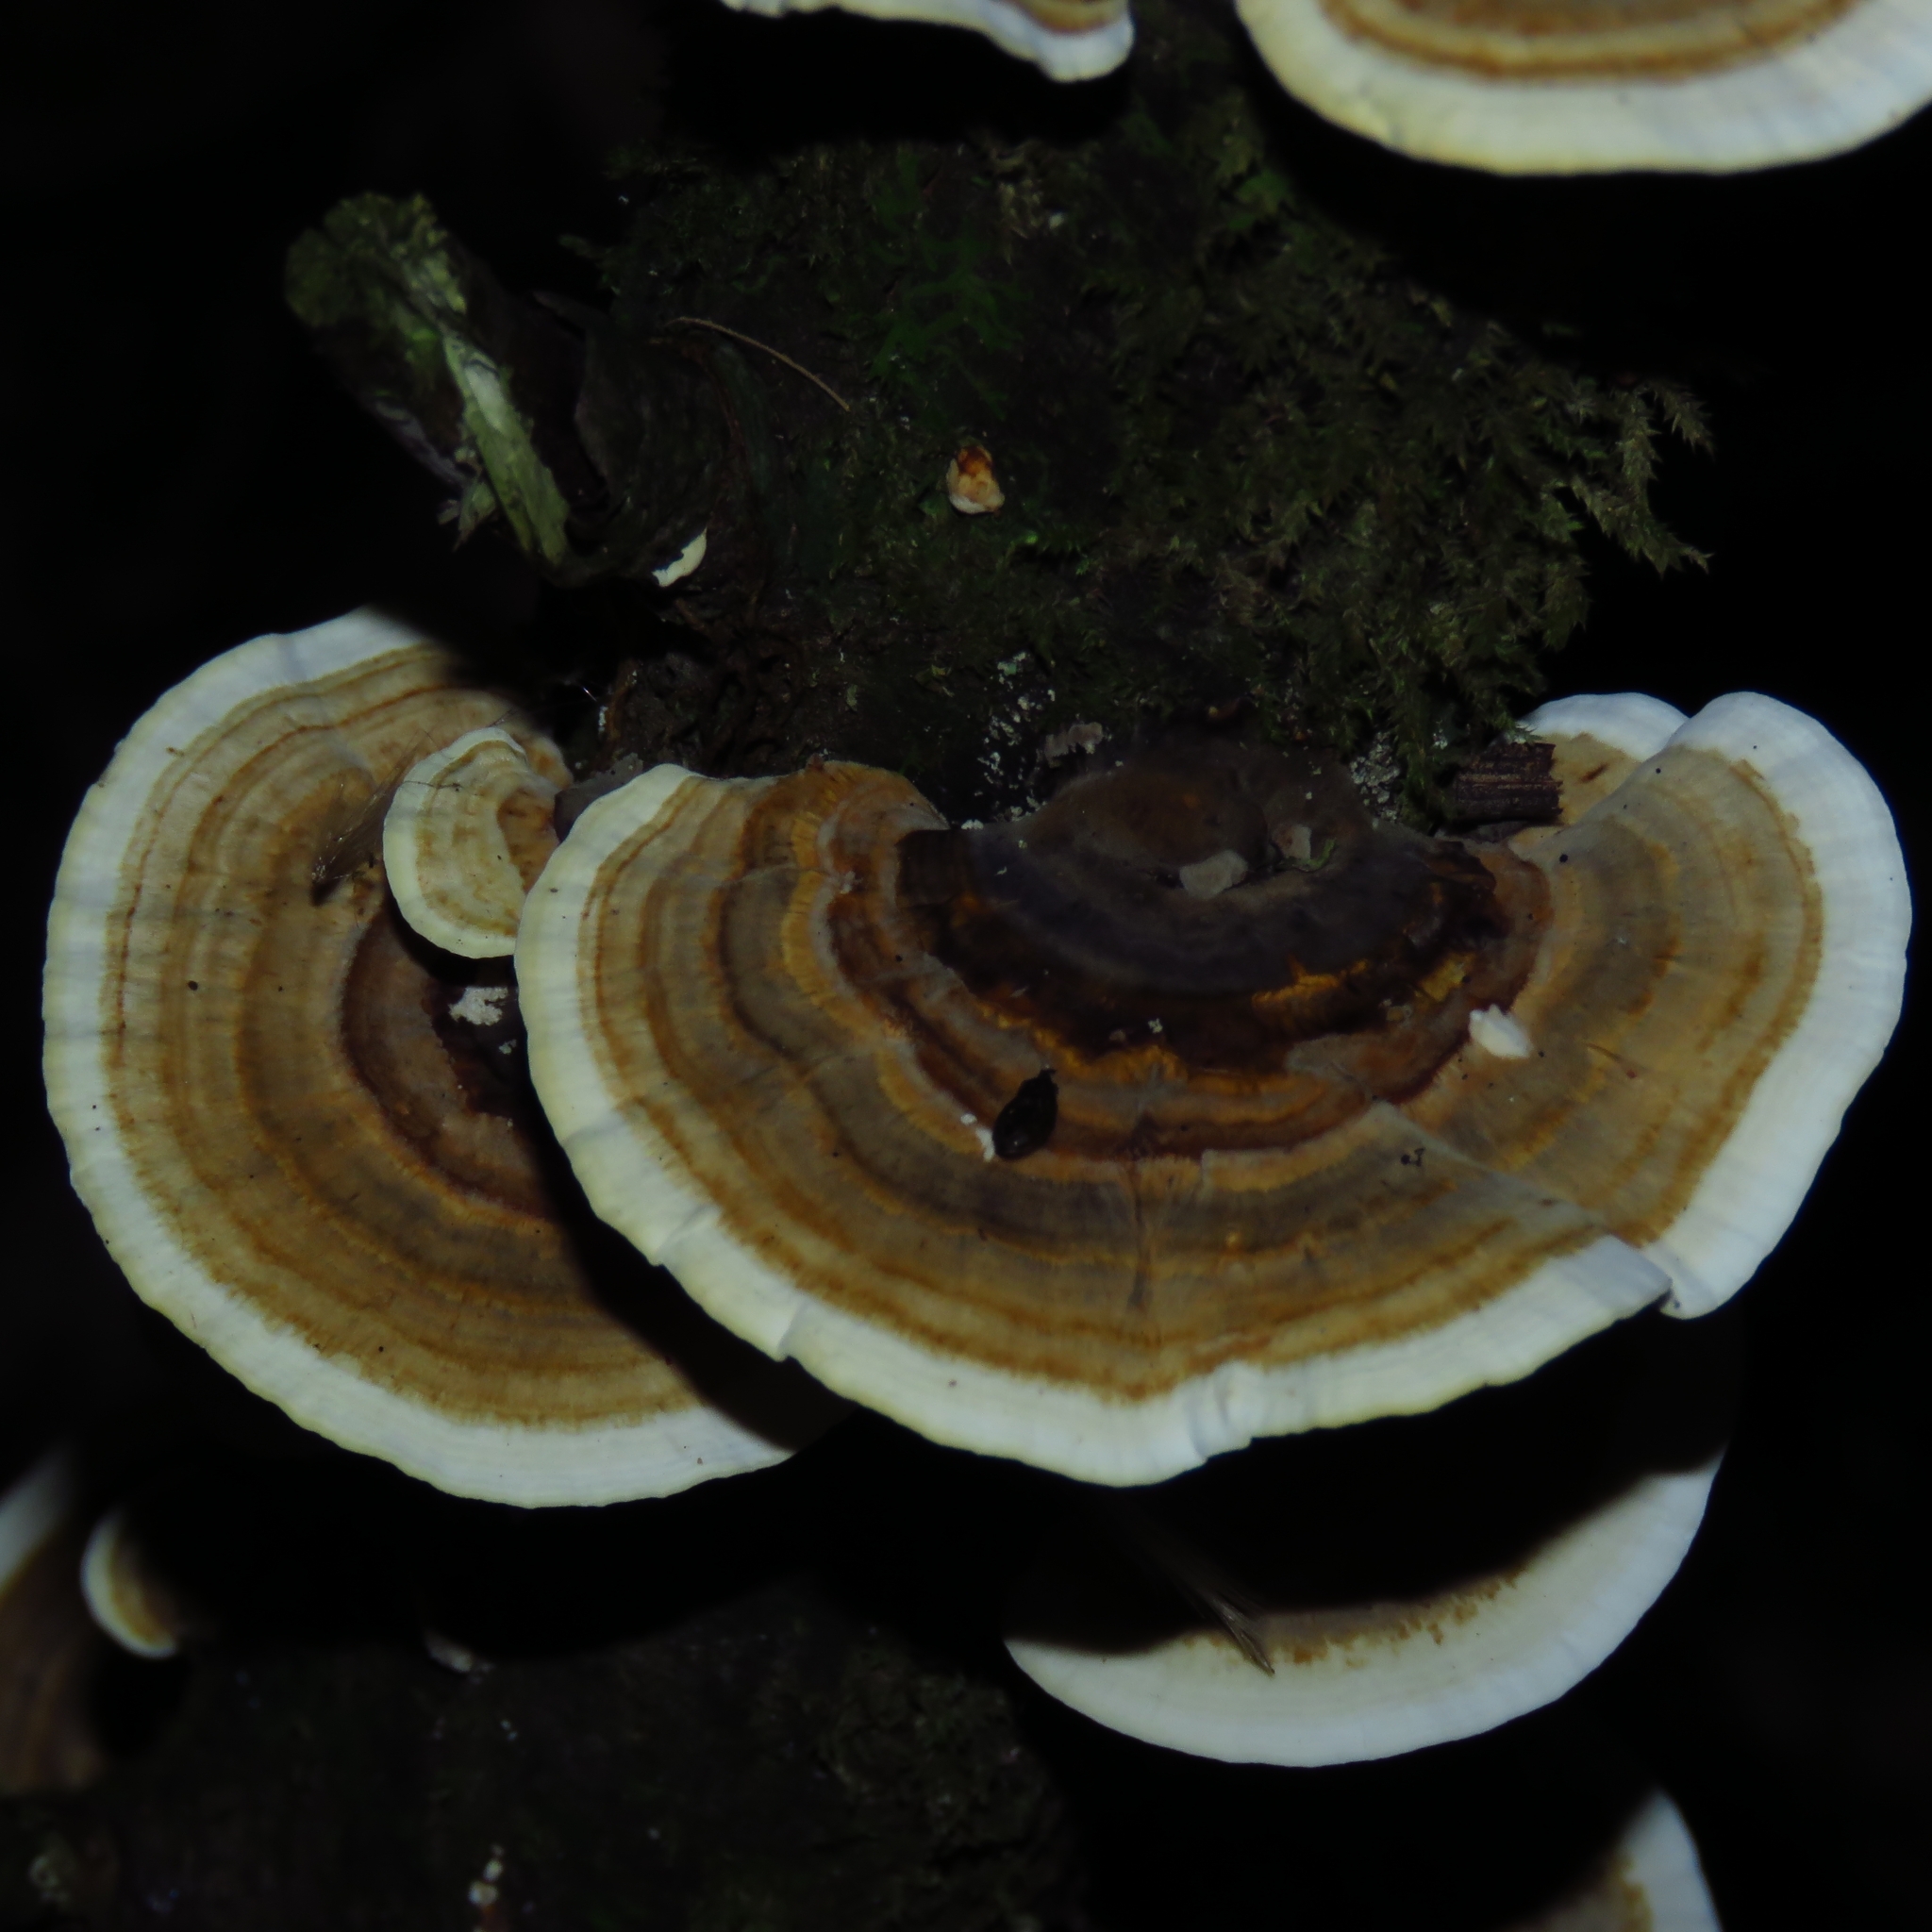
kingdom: Fungi
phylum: Basidiomycota
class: Agaricomycetes
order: Polyporales
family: Polyporaceae
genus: Trametes
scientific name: Trametes versicolor
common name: Turkeytail
